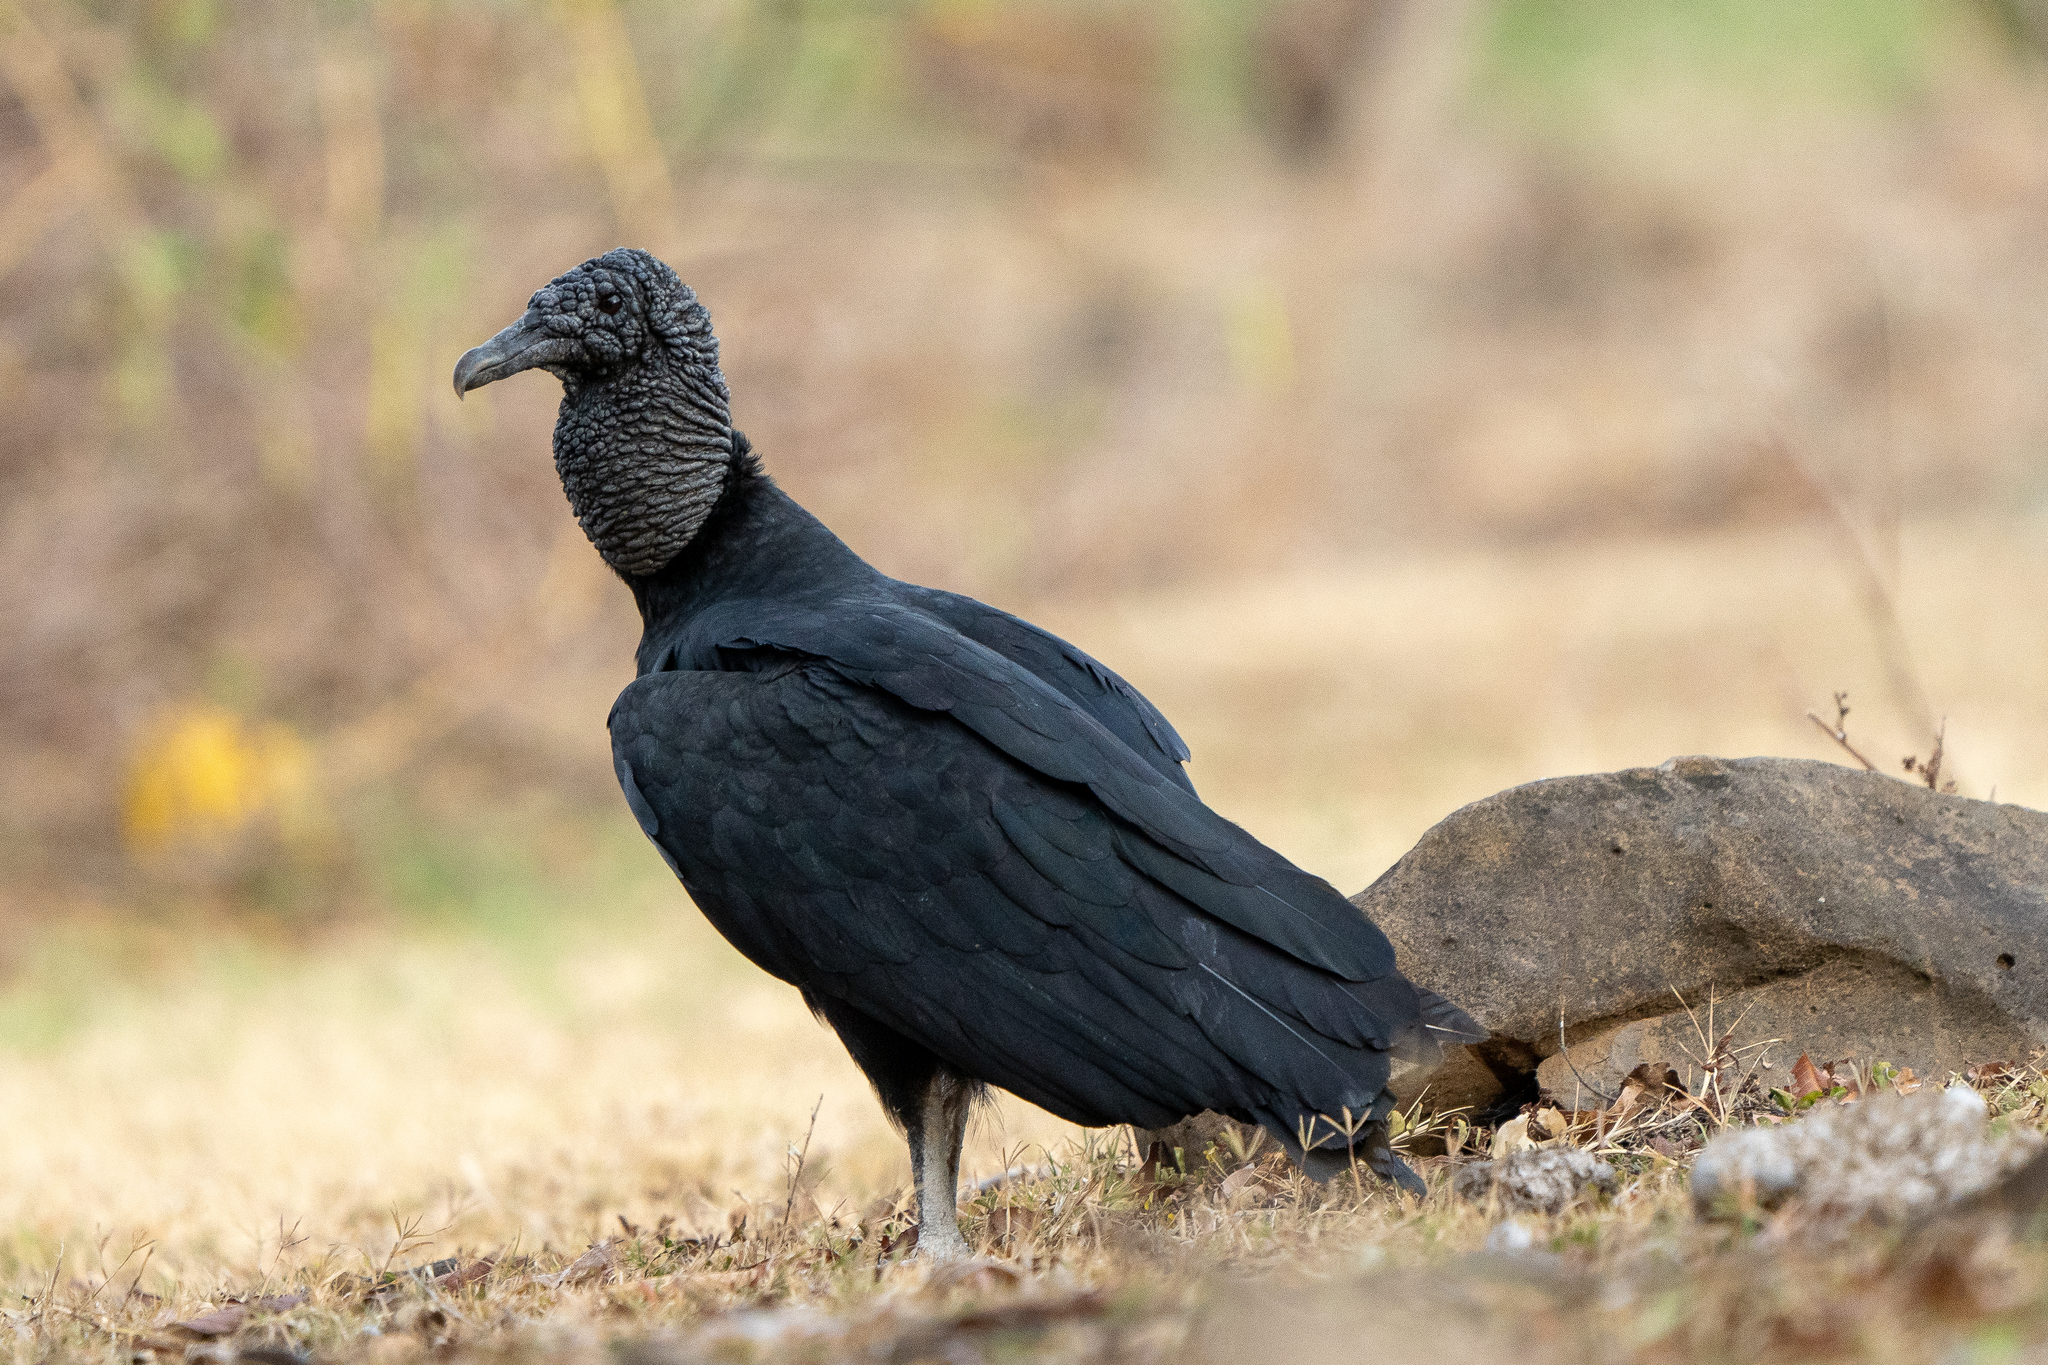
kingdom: Animalia
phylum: Chordata
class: Aves
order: Accipitriformes
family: Cathartidae
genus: Coragyps
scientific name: Coragyps atratus
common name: Black vulture
